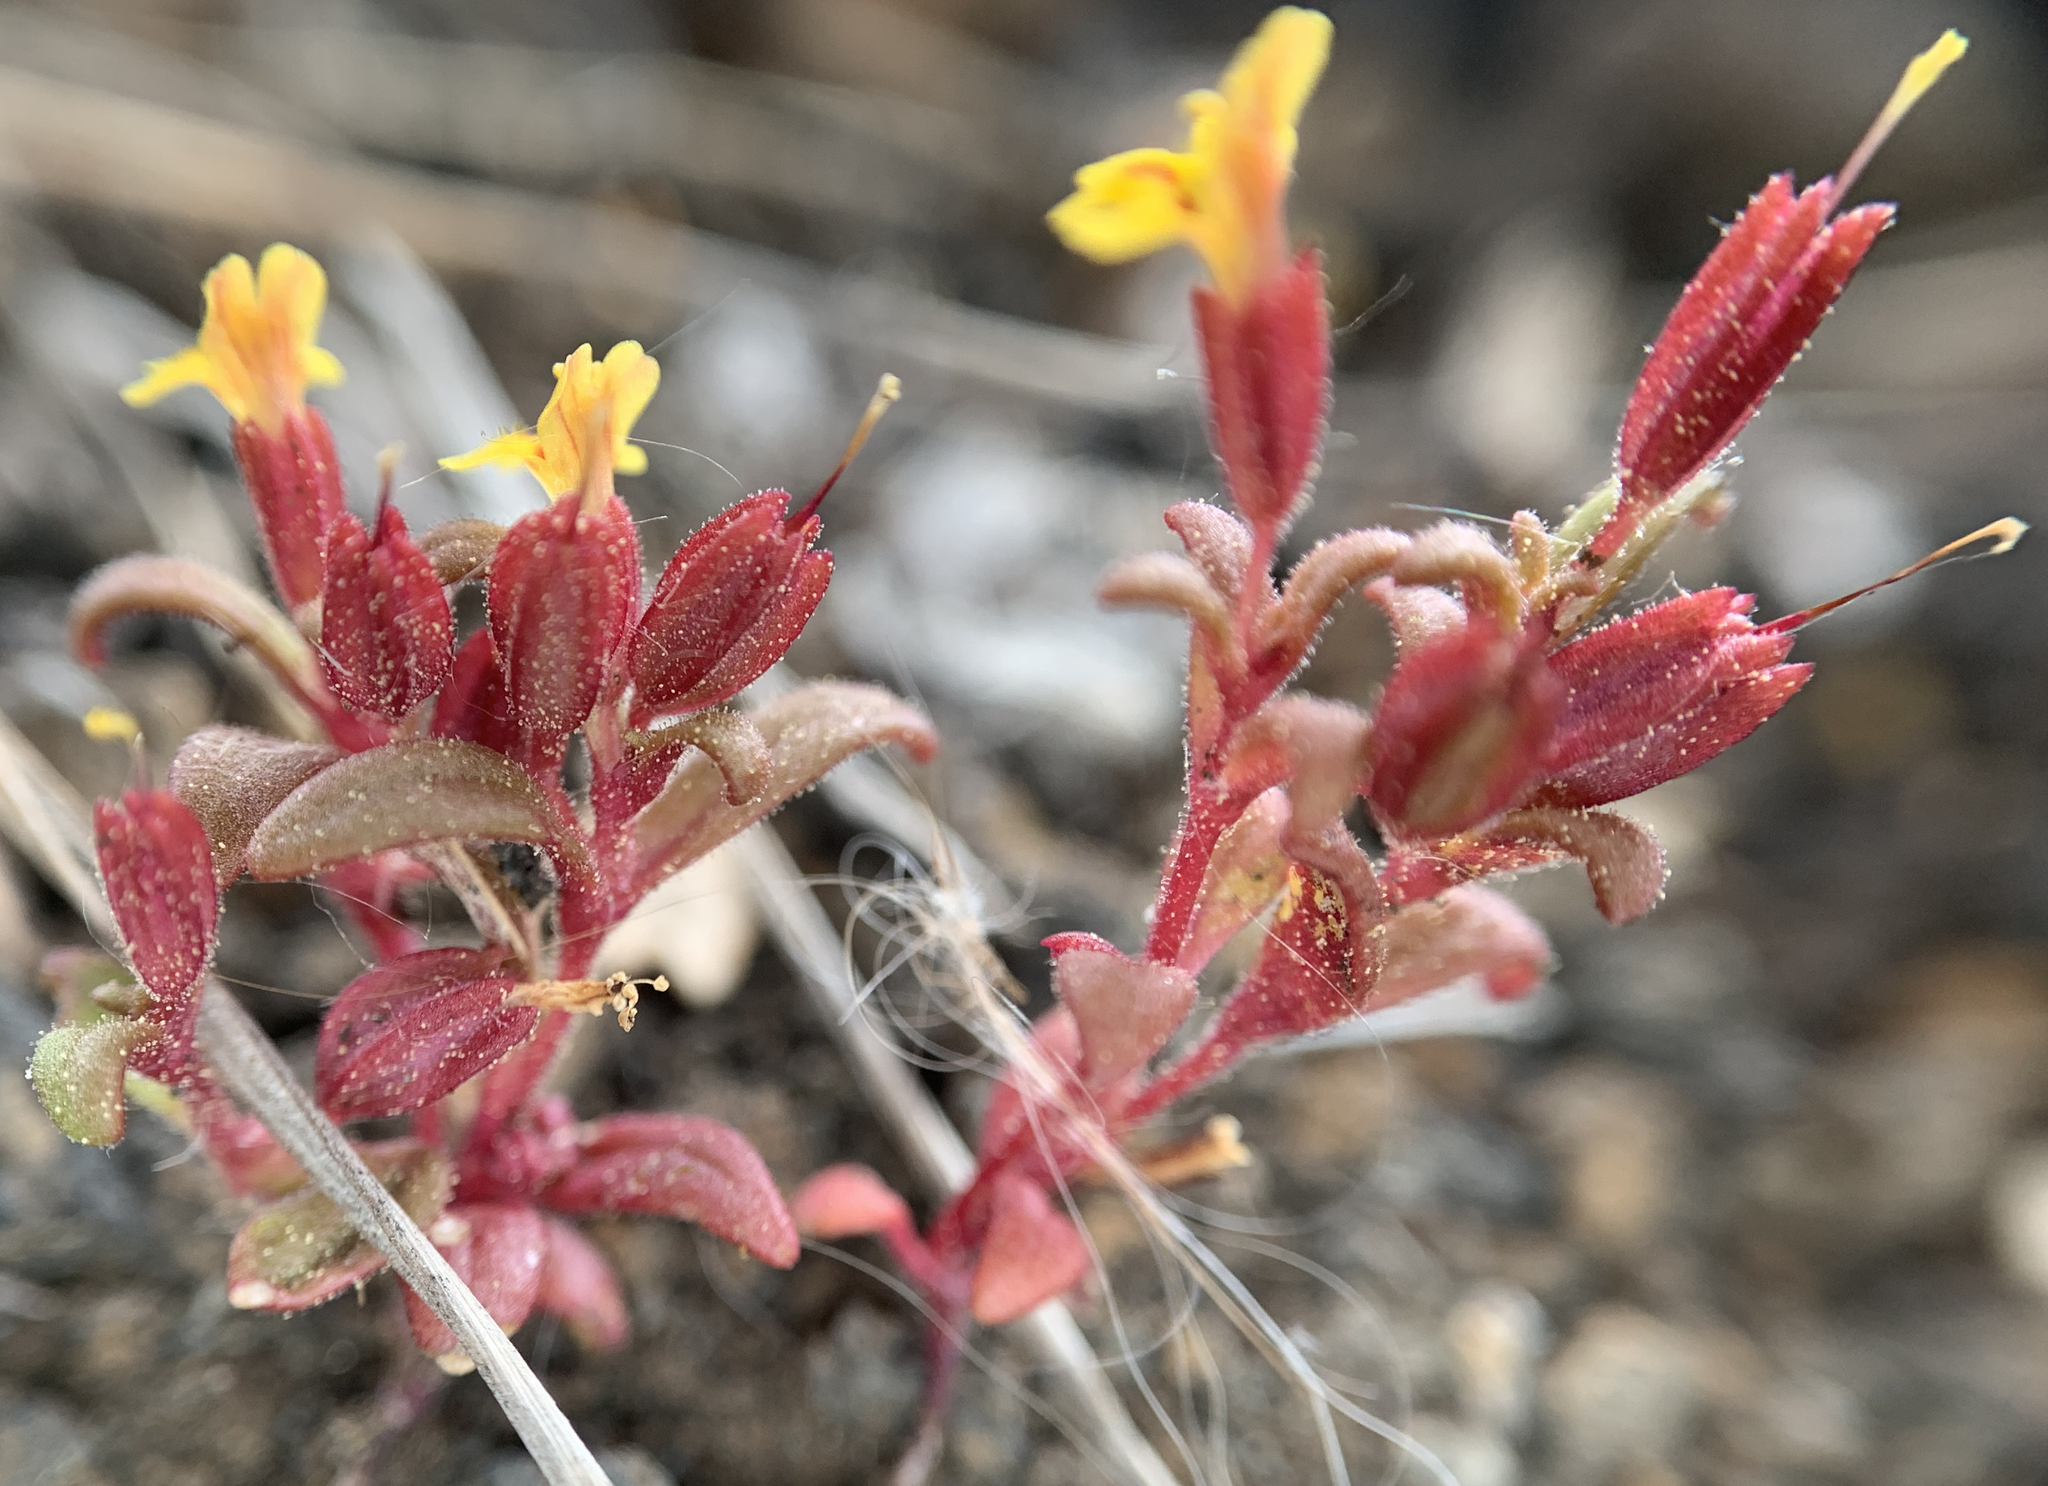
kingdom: Plantae
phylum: Tracheophyta
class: Magnoliopsida
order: Lamiales
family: Phrymaceae
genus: Erythranthe
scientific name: Erythranthe suksdorfii
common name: Suksdorf's monkeyflower
